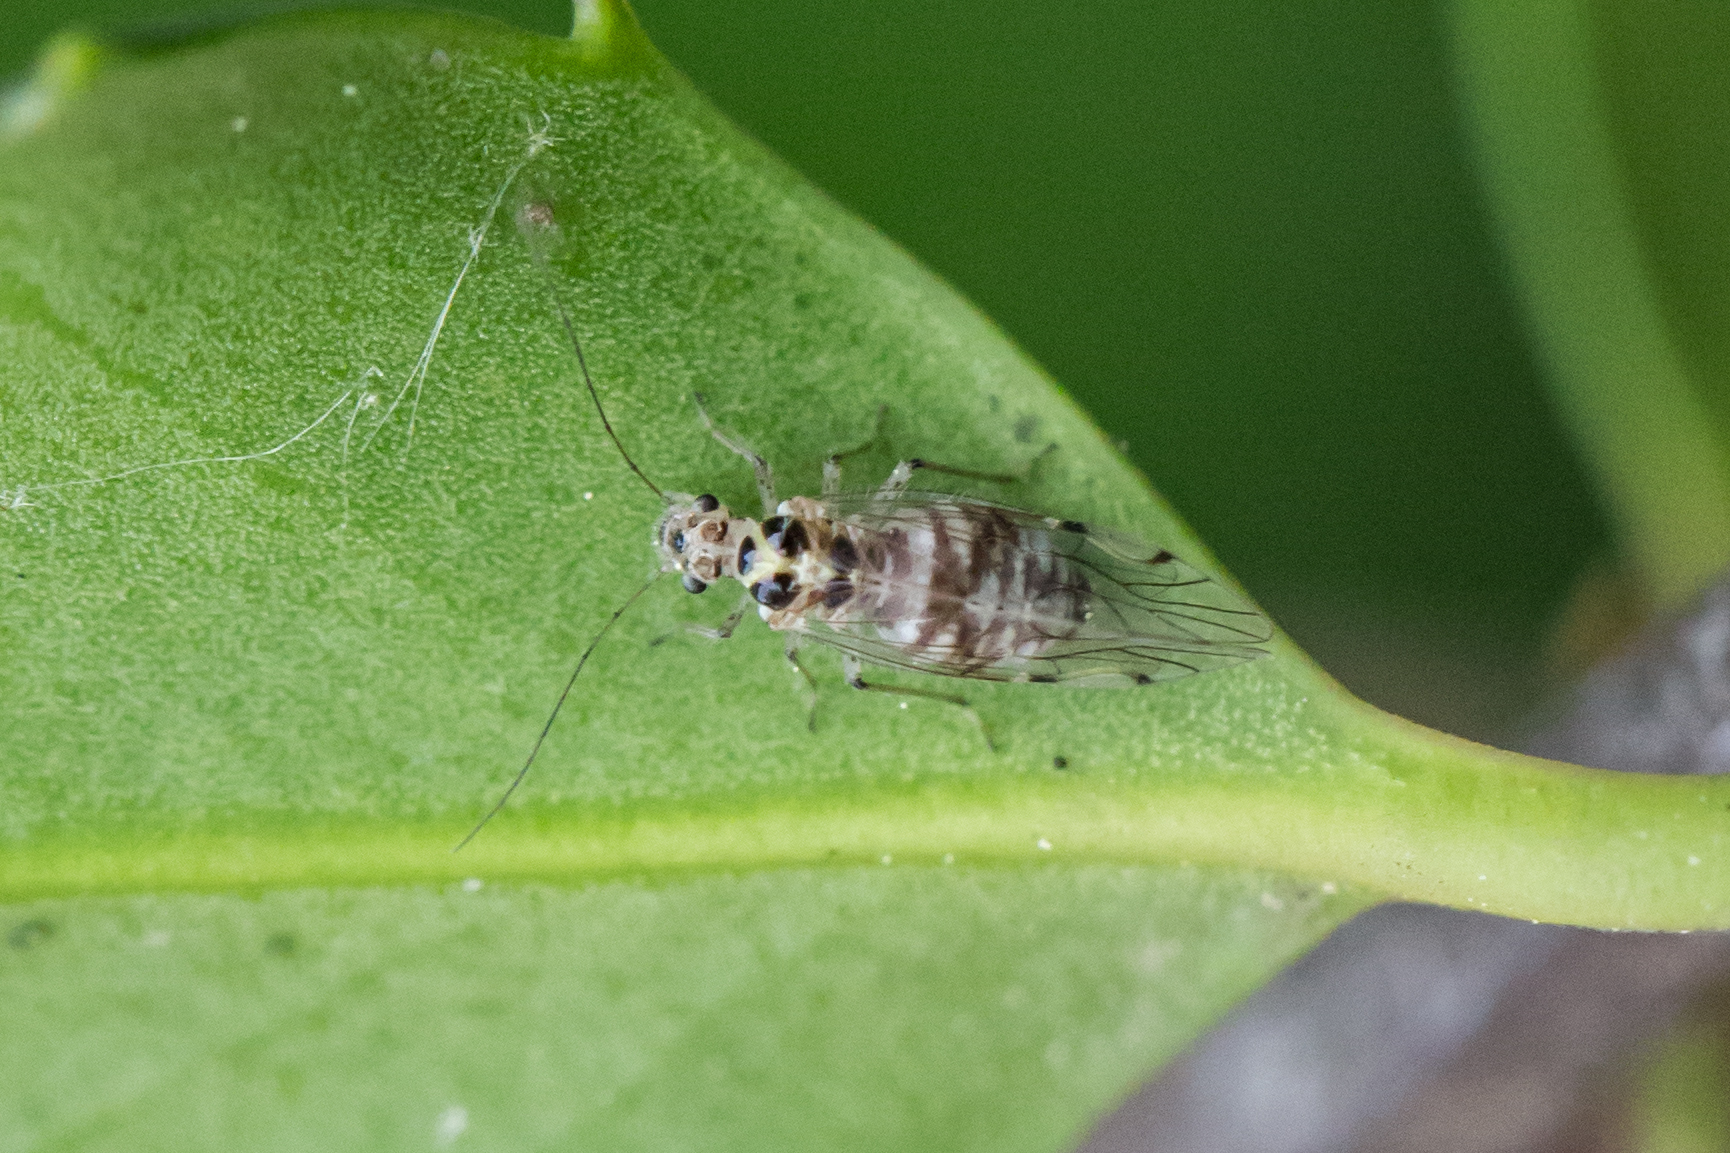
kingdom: Animalia
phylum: Arthropoda
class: Insecta
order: Psocodea
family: Dasydemellidae
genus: Teliapsocus
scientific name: Teliapsocus conterminus
